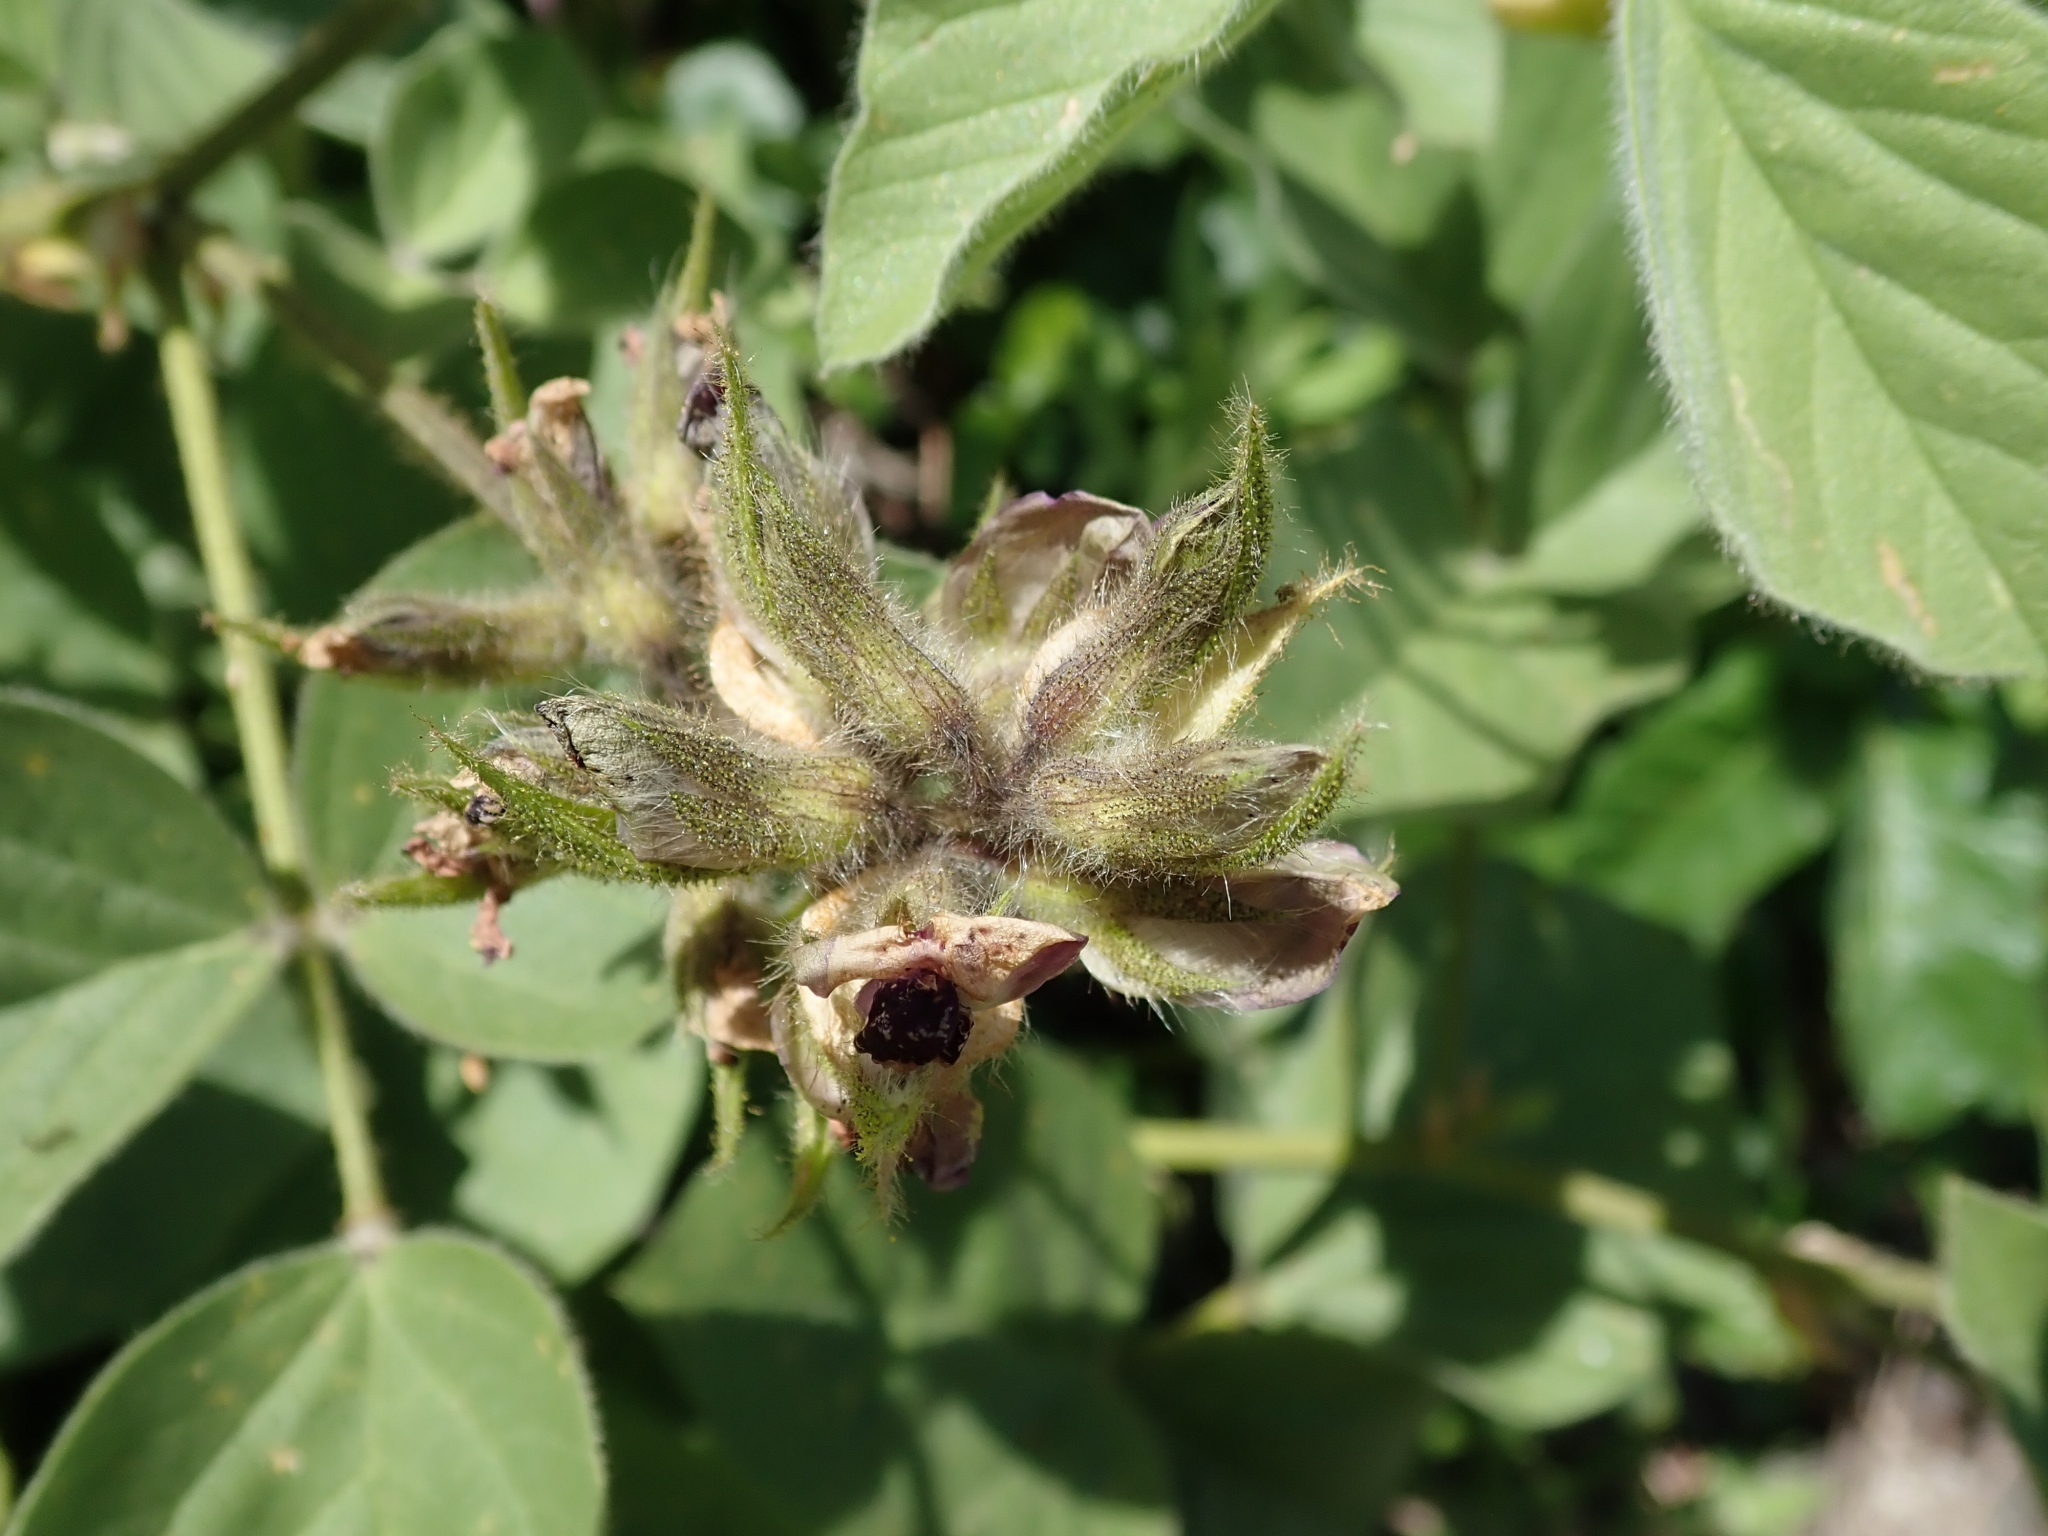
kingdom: Plantae
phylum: Tracheophyta
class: Magnoliopsida
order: Fabales
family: Fabaceae
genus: Hoita
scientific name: Hoita strobilina
